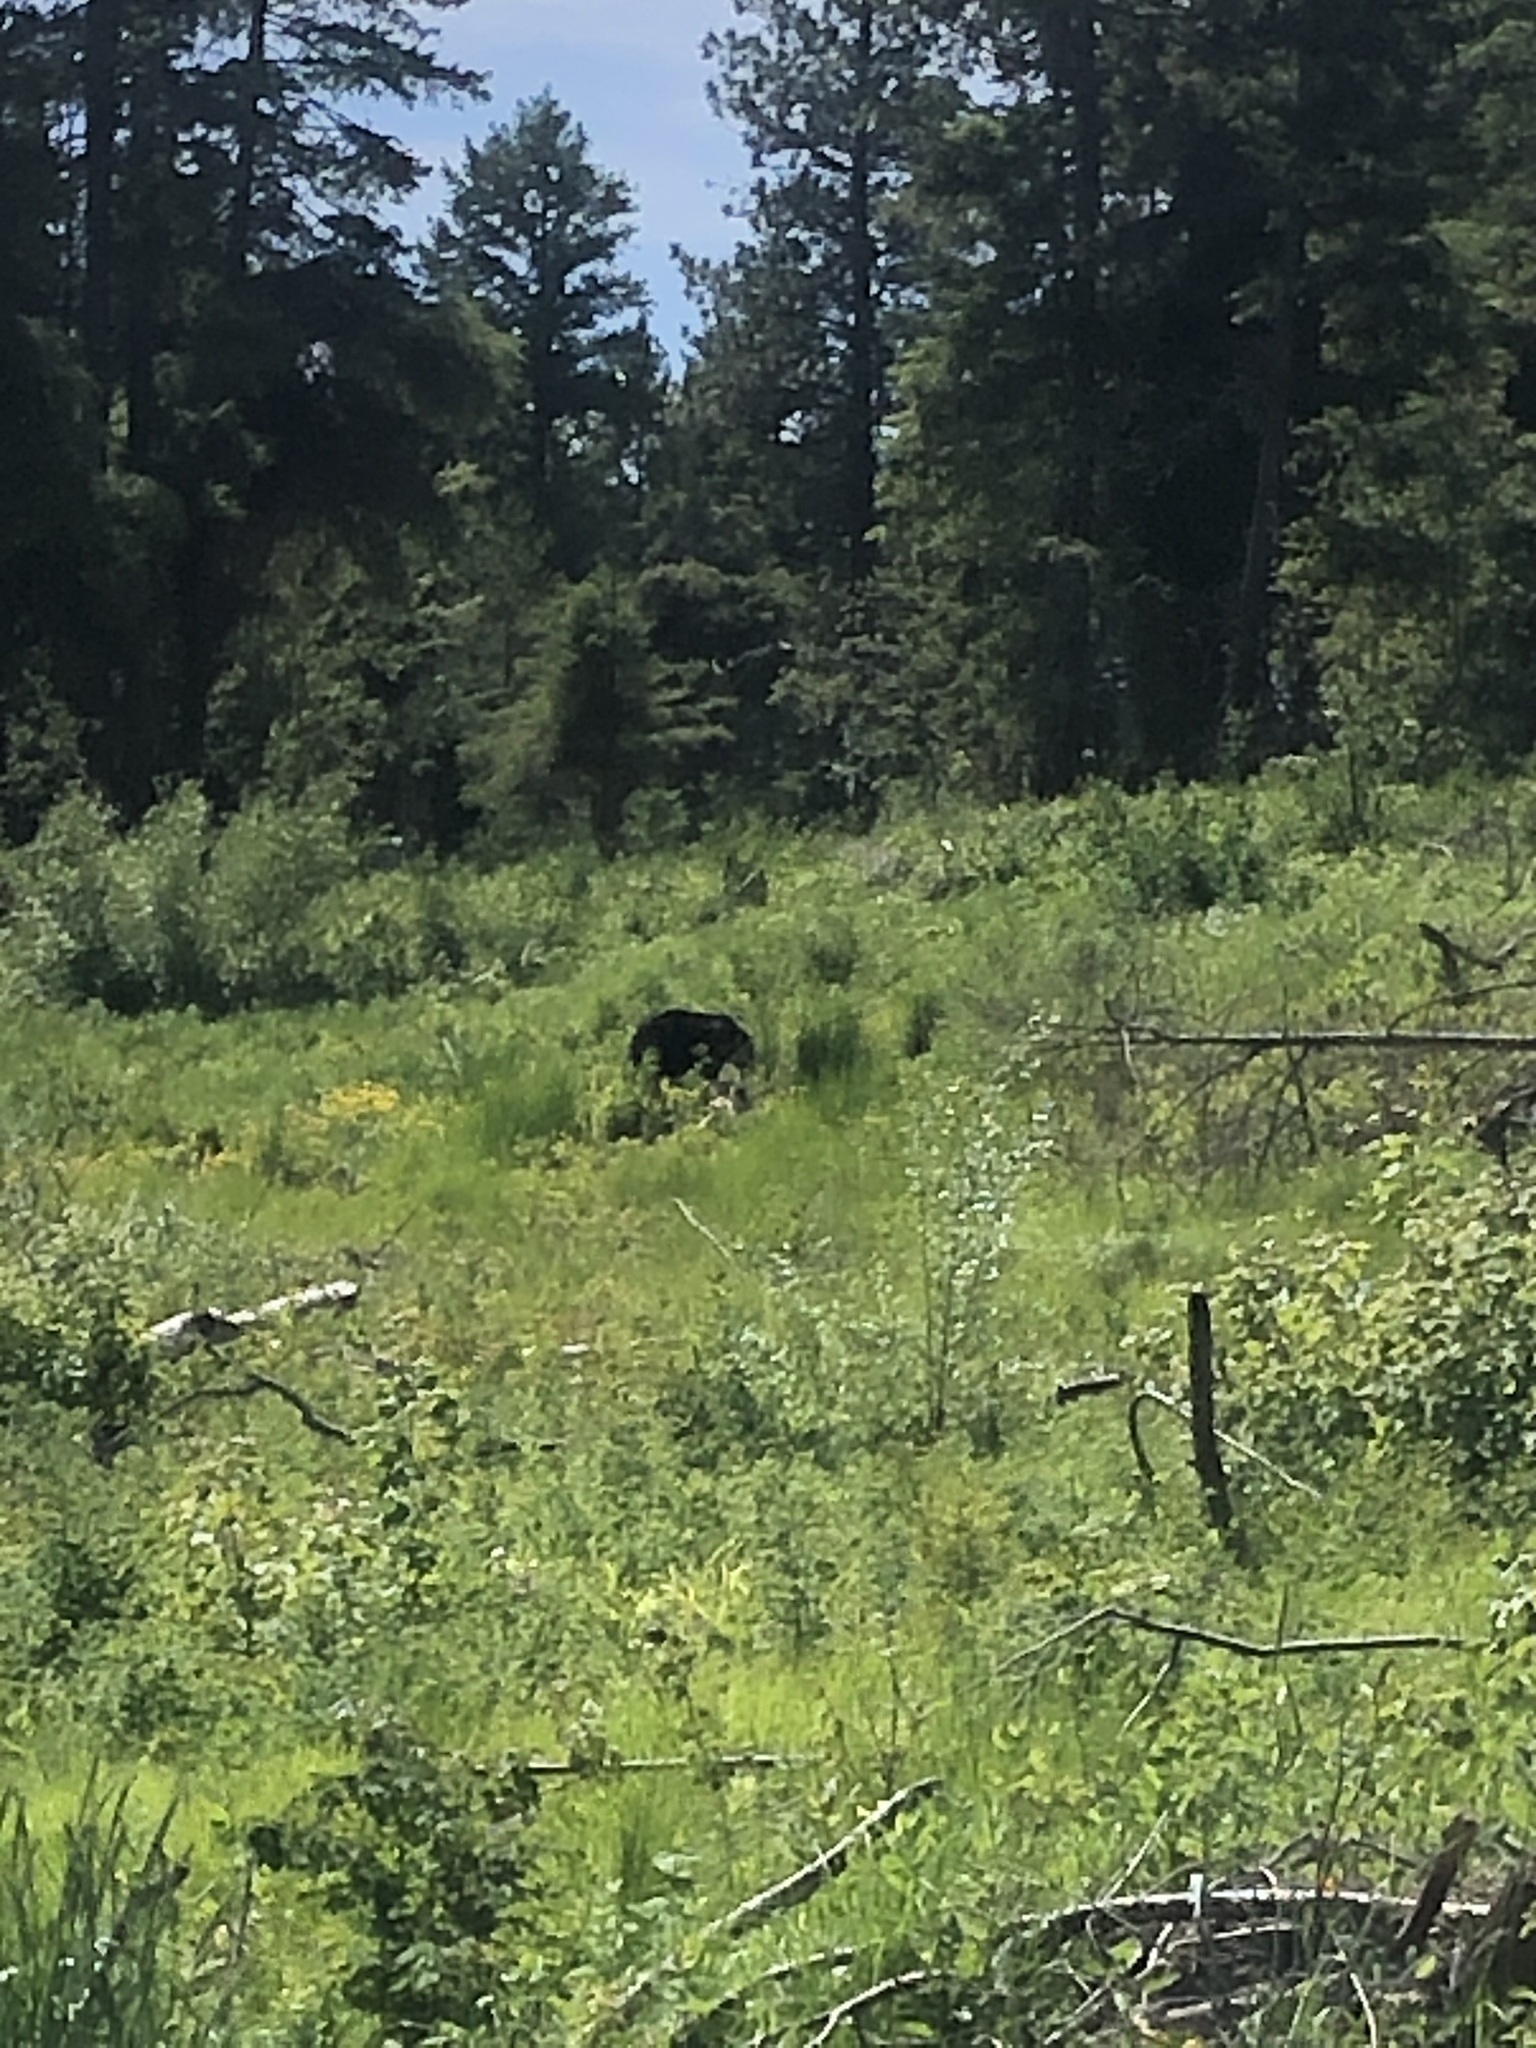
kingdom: Animalia
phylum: Chordata
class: Mammalia
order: Carnivora
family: Ursidae
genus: Ursus
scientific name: Ursus americanus
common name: American black bear
